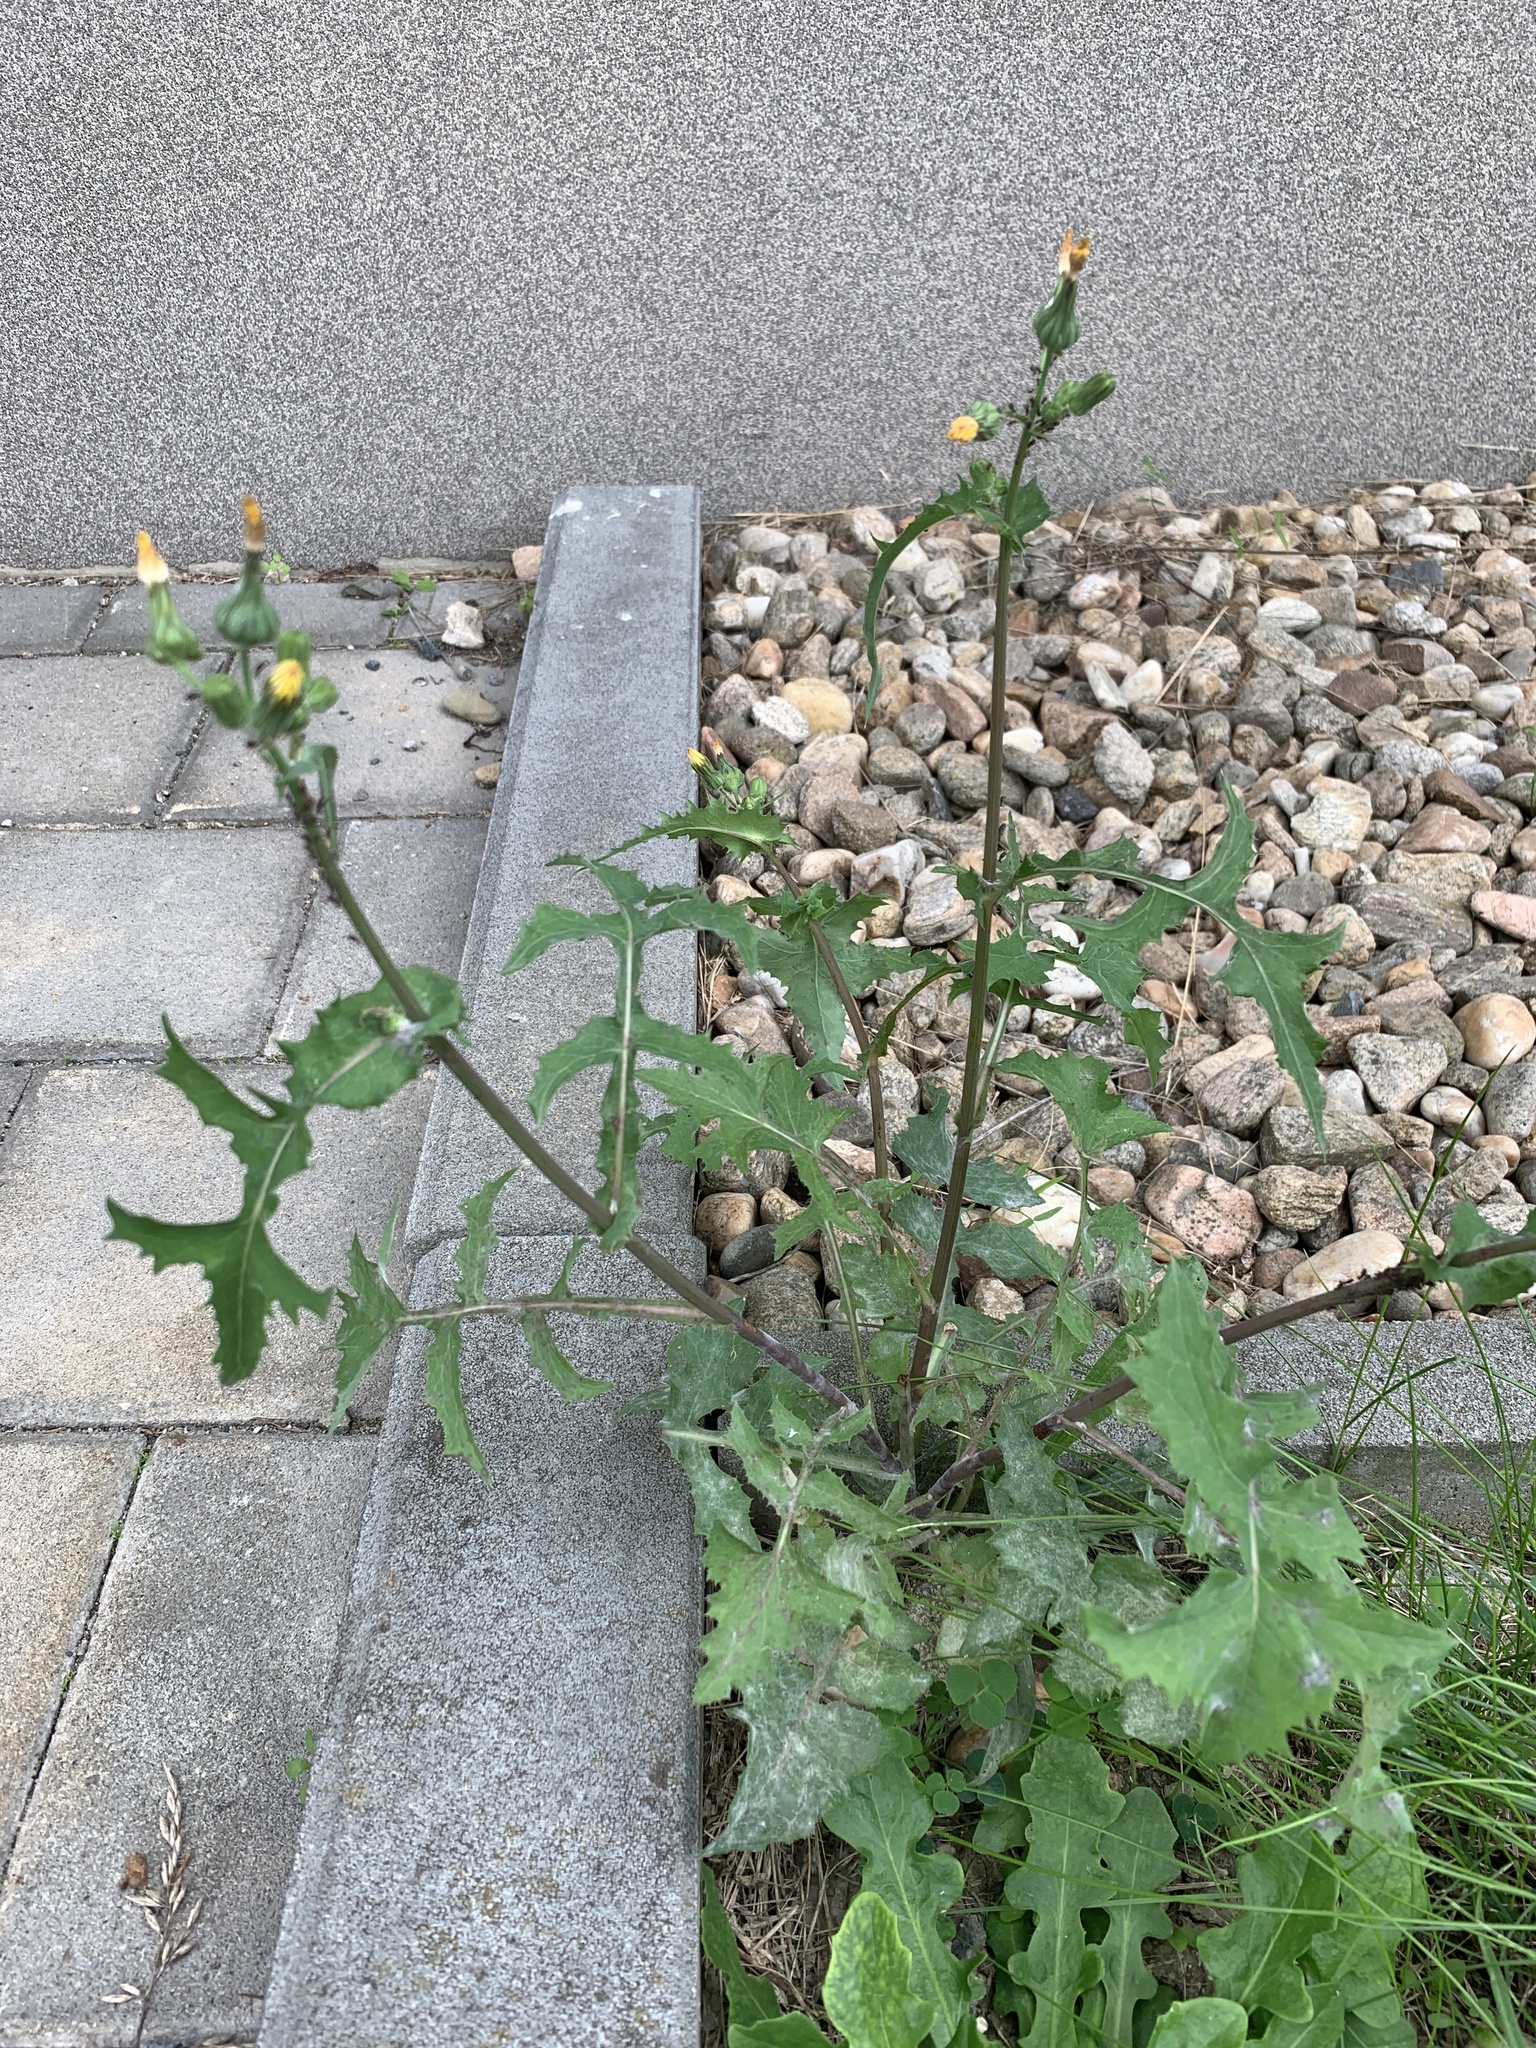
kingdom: Plantae
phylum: Tracheophyta
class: Magnoliopsida
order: Asterales
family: Asteraceae
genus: Sonchus
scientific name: Sonchus oleraceus
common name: Common sowthistle
